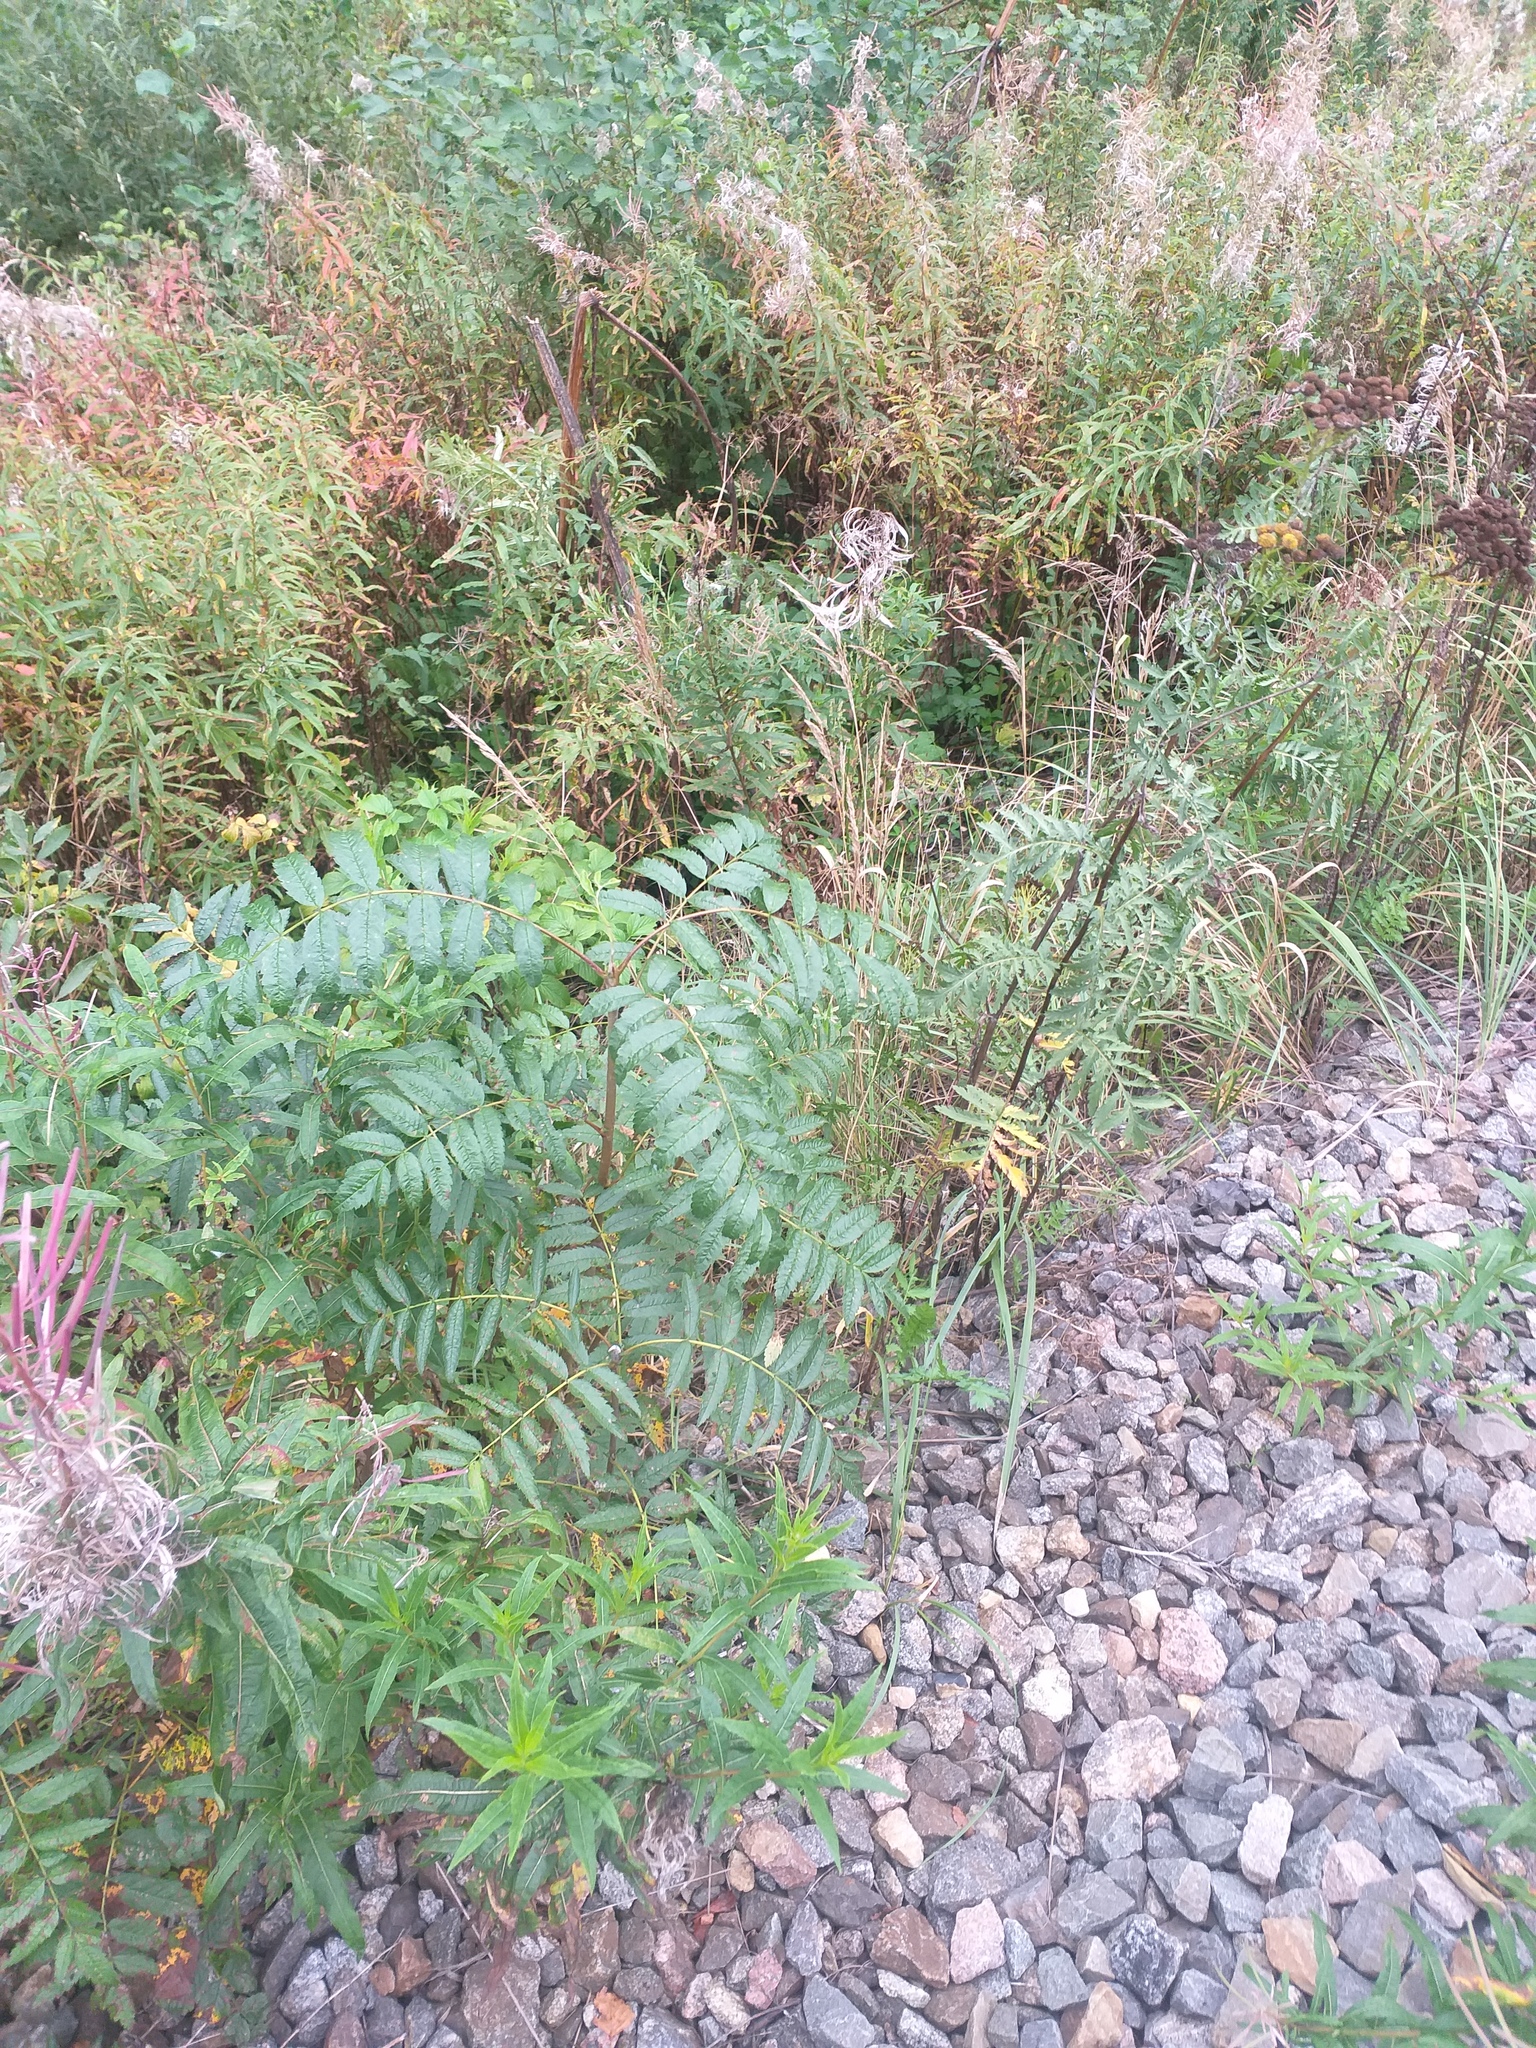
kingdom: Plantae
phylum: Tracheophyta
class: Magnoliopsida
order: Rosales
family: Rosaceae
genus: Sorbus
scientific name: Sorbus aucuparia
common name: Rowan
